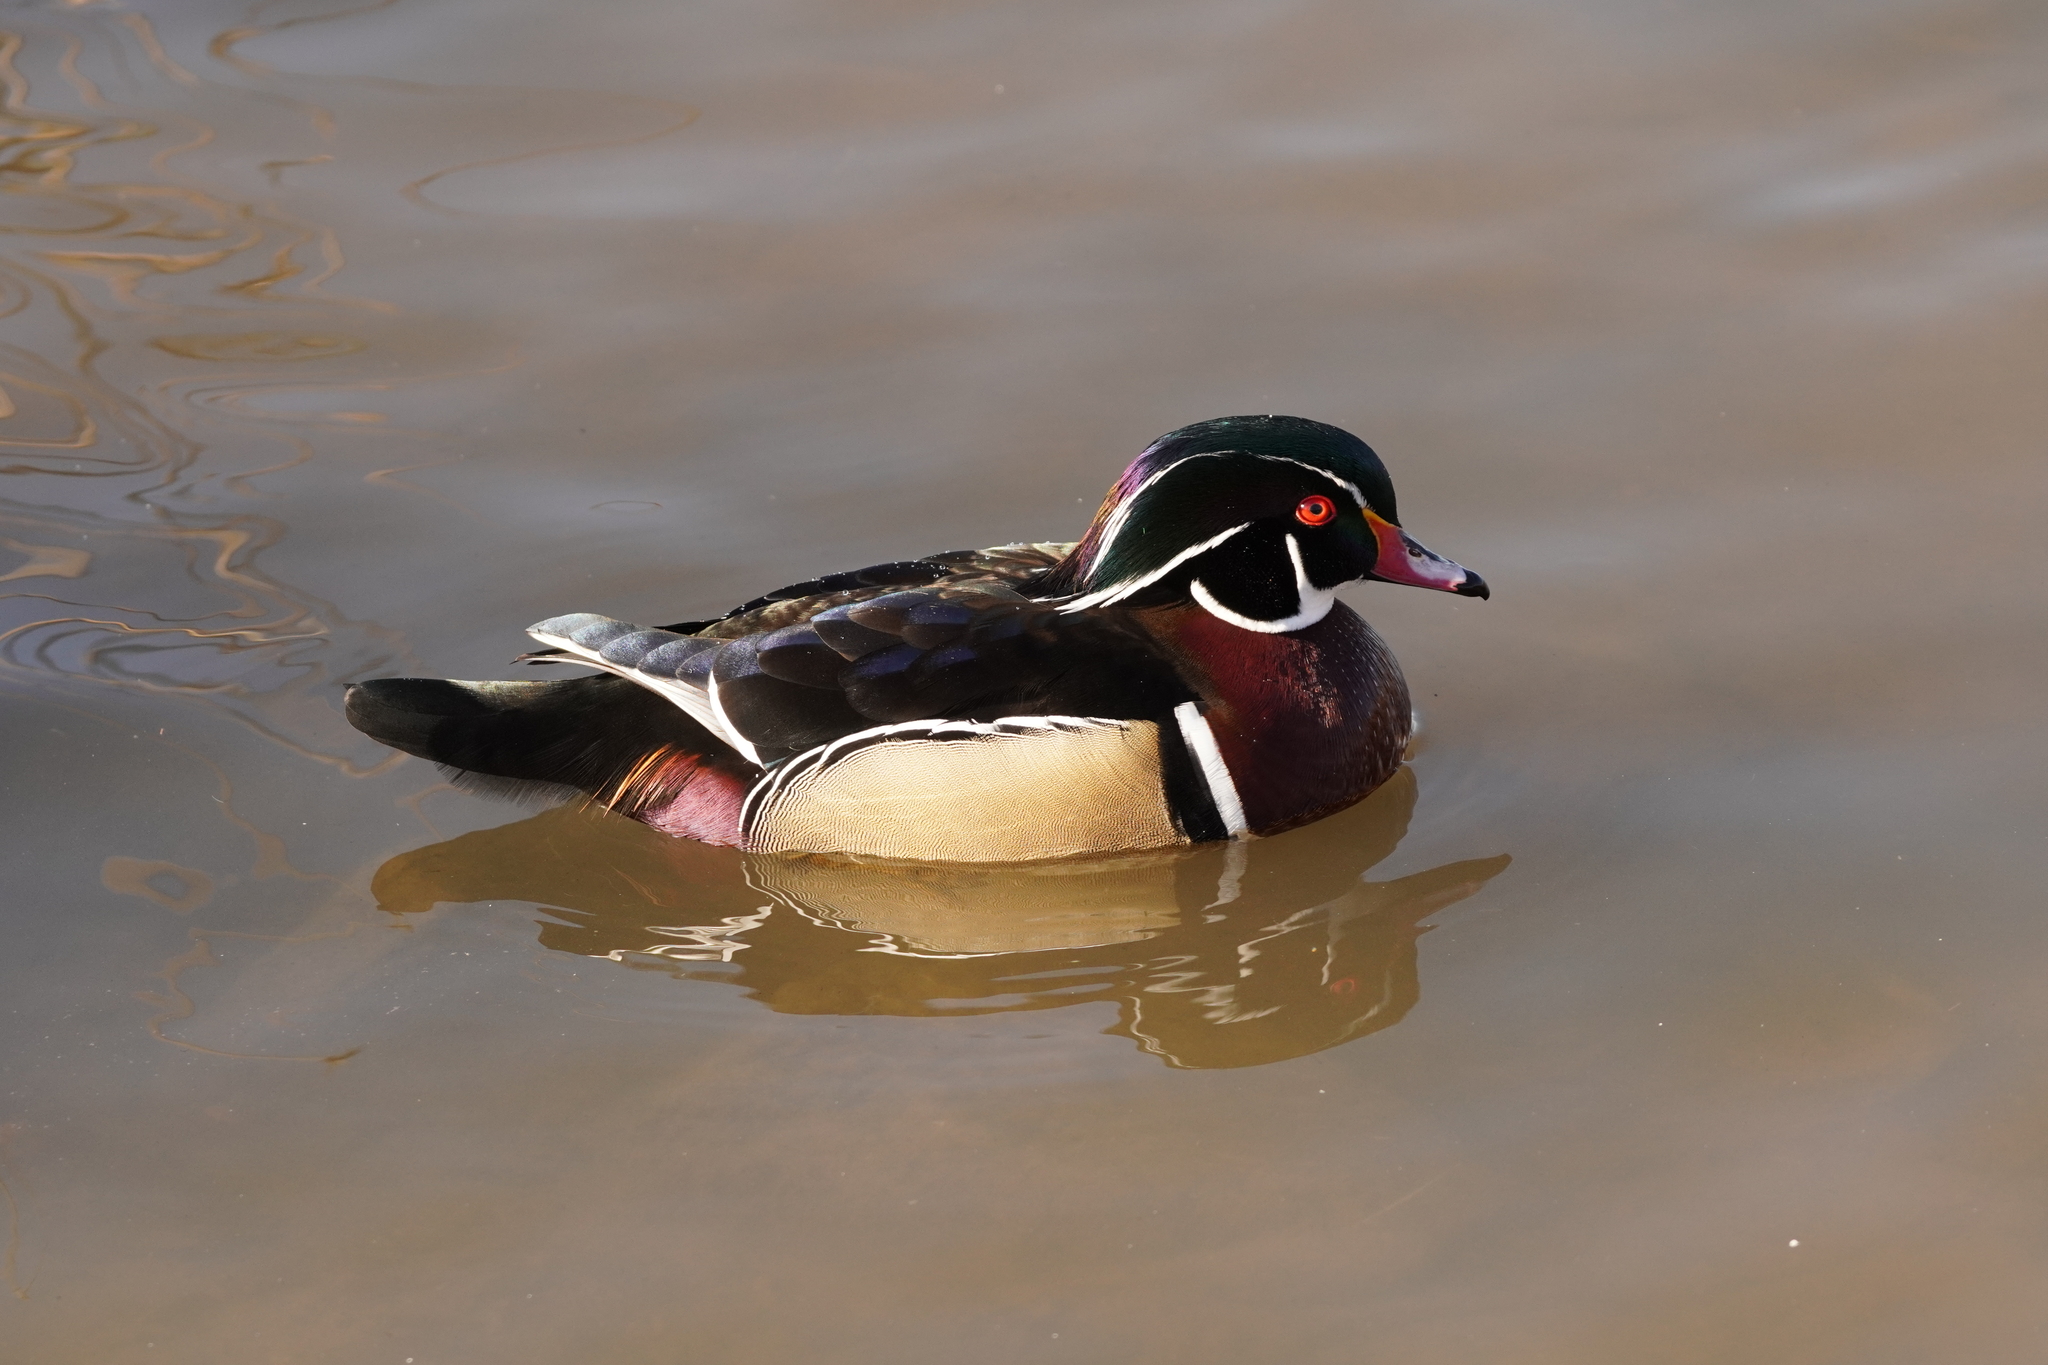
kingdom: Animalia
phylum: Chordata
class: Aves
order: Anseriformes
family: Anatidae
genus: Aix
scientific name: Aix sponsa
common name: Wood duck
